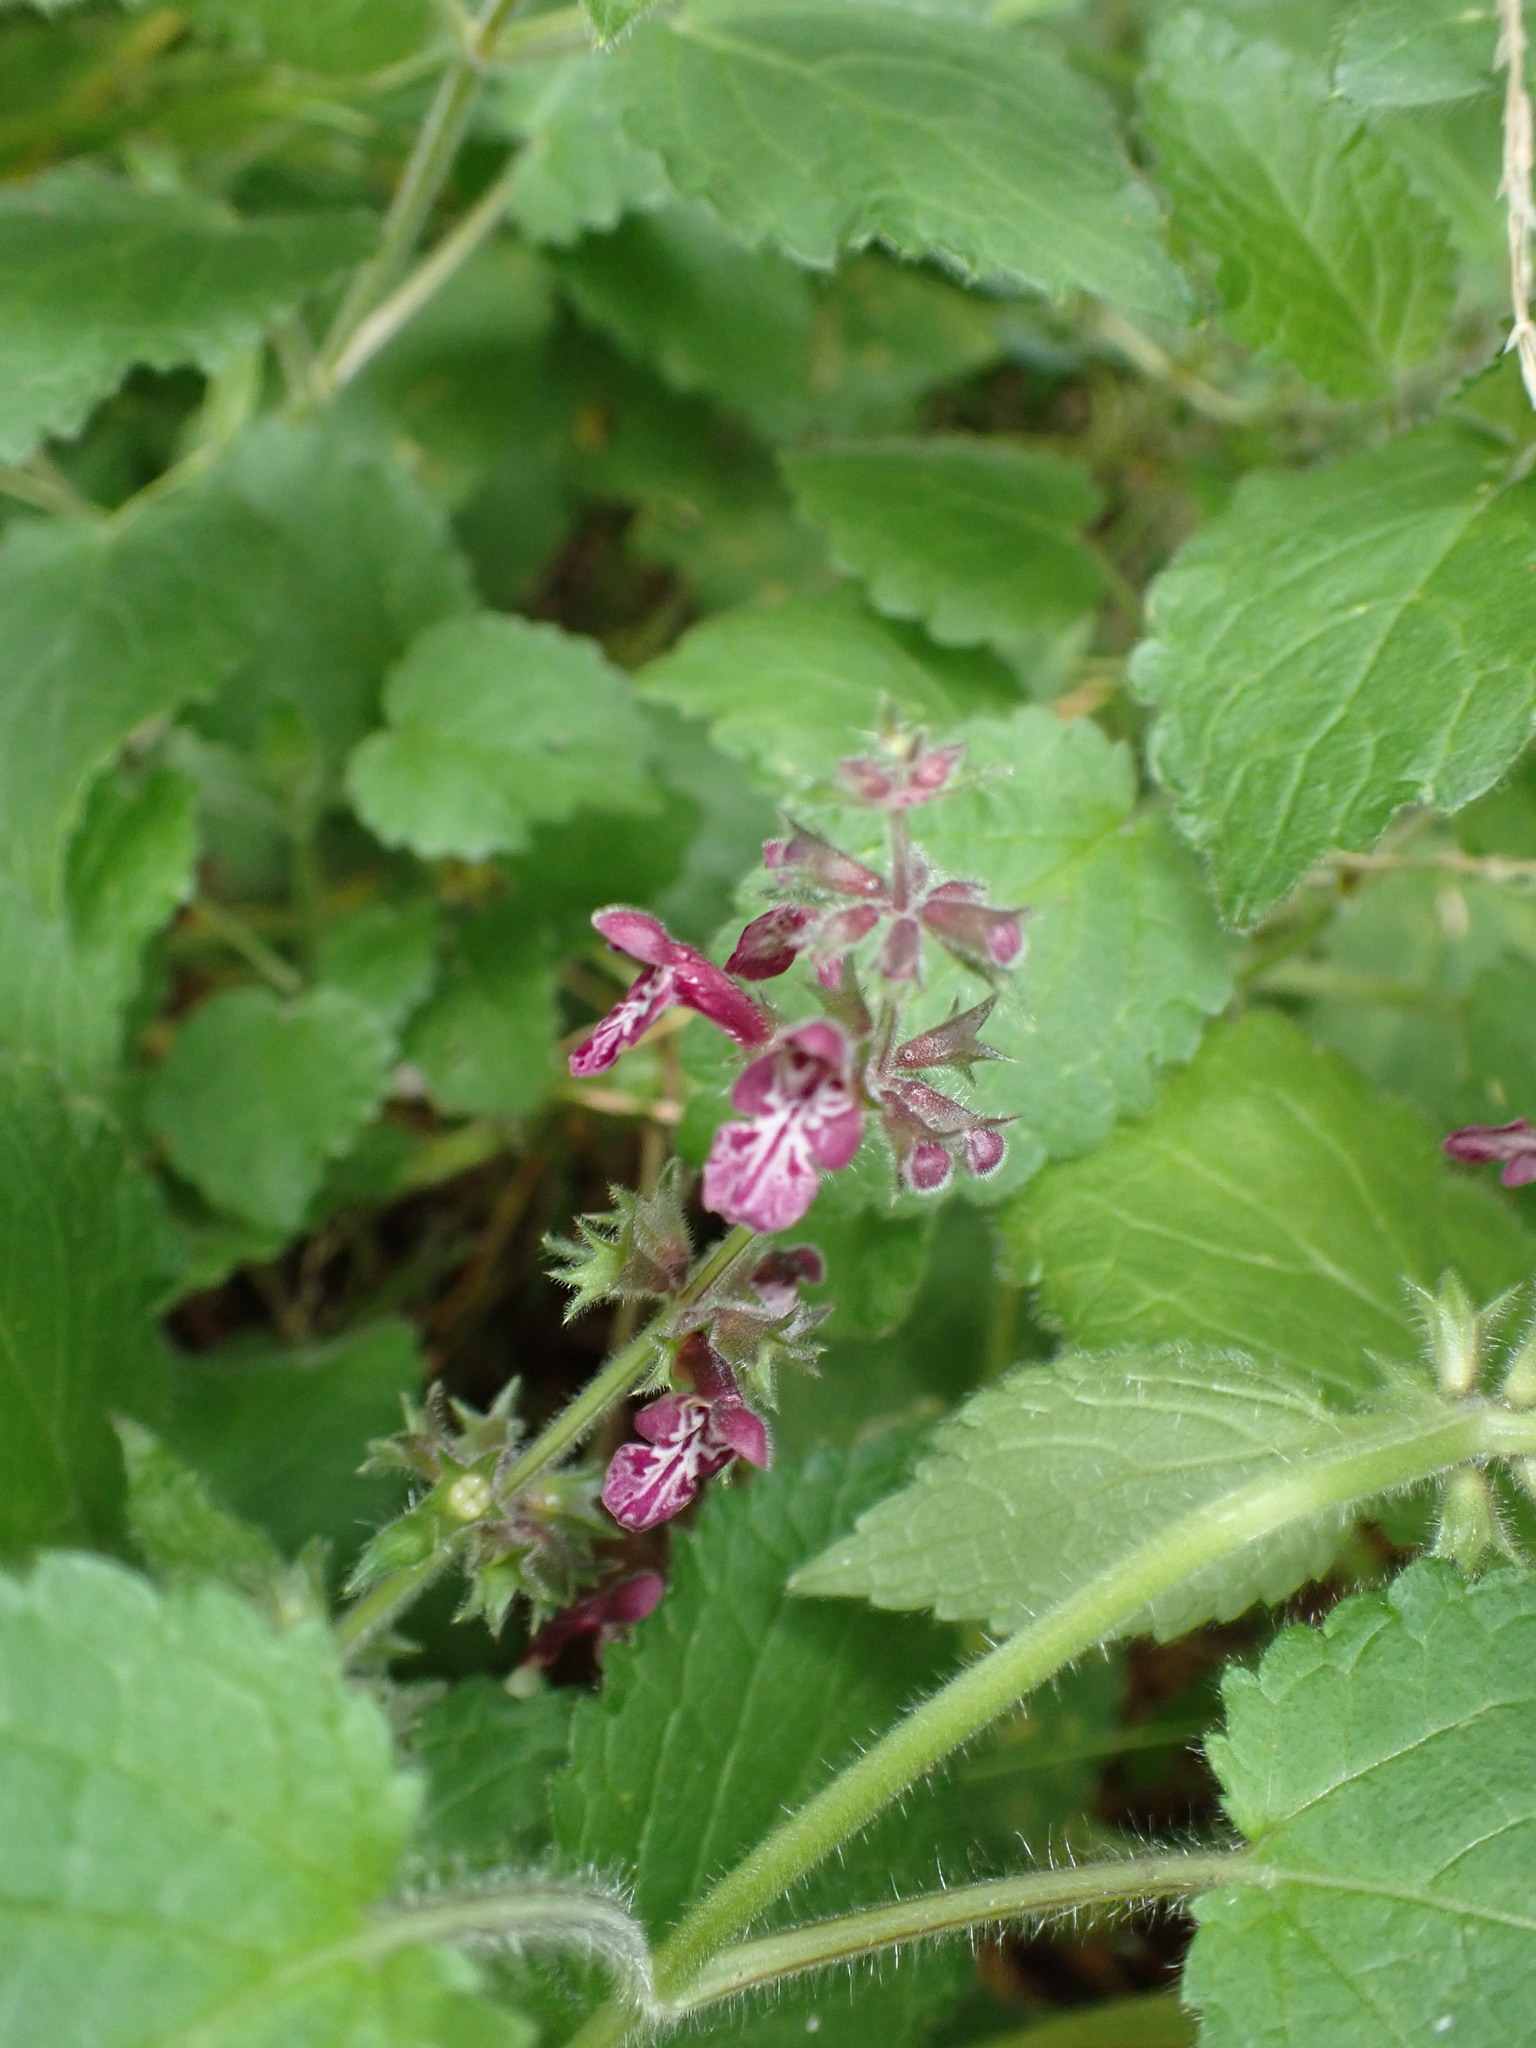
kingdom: Plantae
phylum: Tracheophyta
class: Magnoliopsida
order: Lamiales
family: Lamiaceae
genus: Stachys
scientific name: Stachys sylvatica
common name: Hedge woundwort
